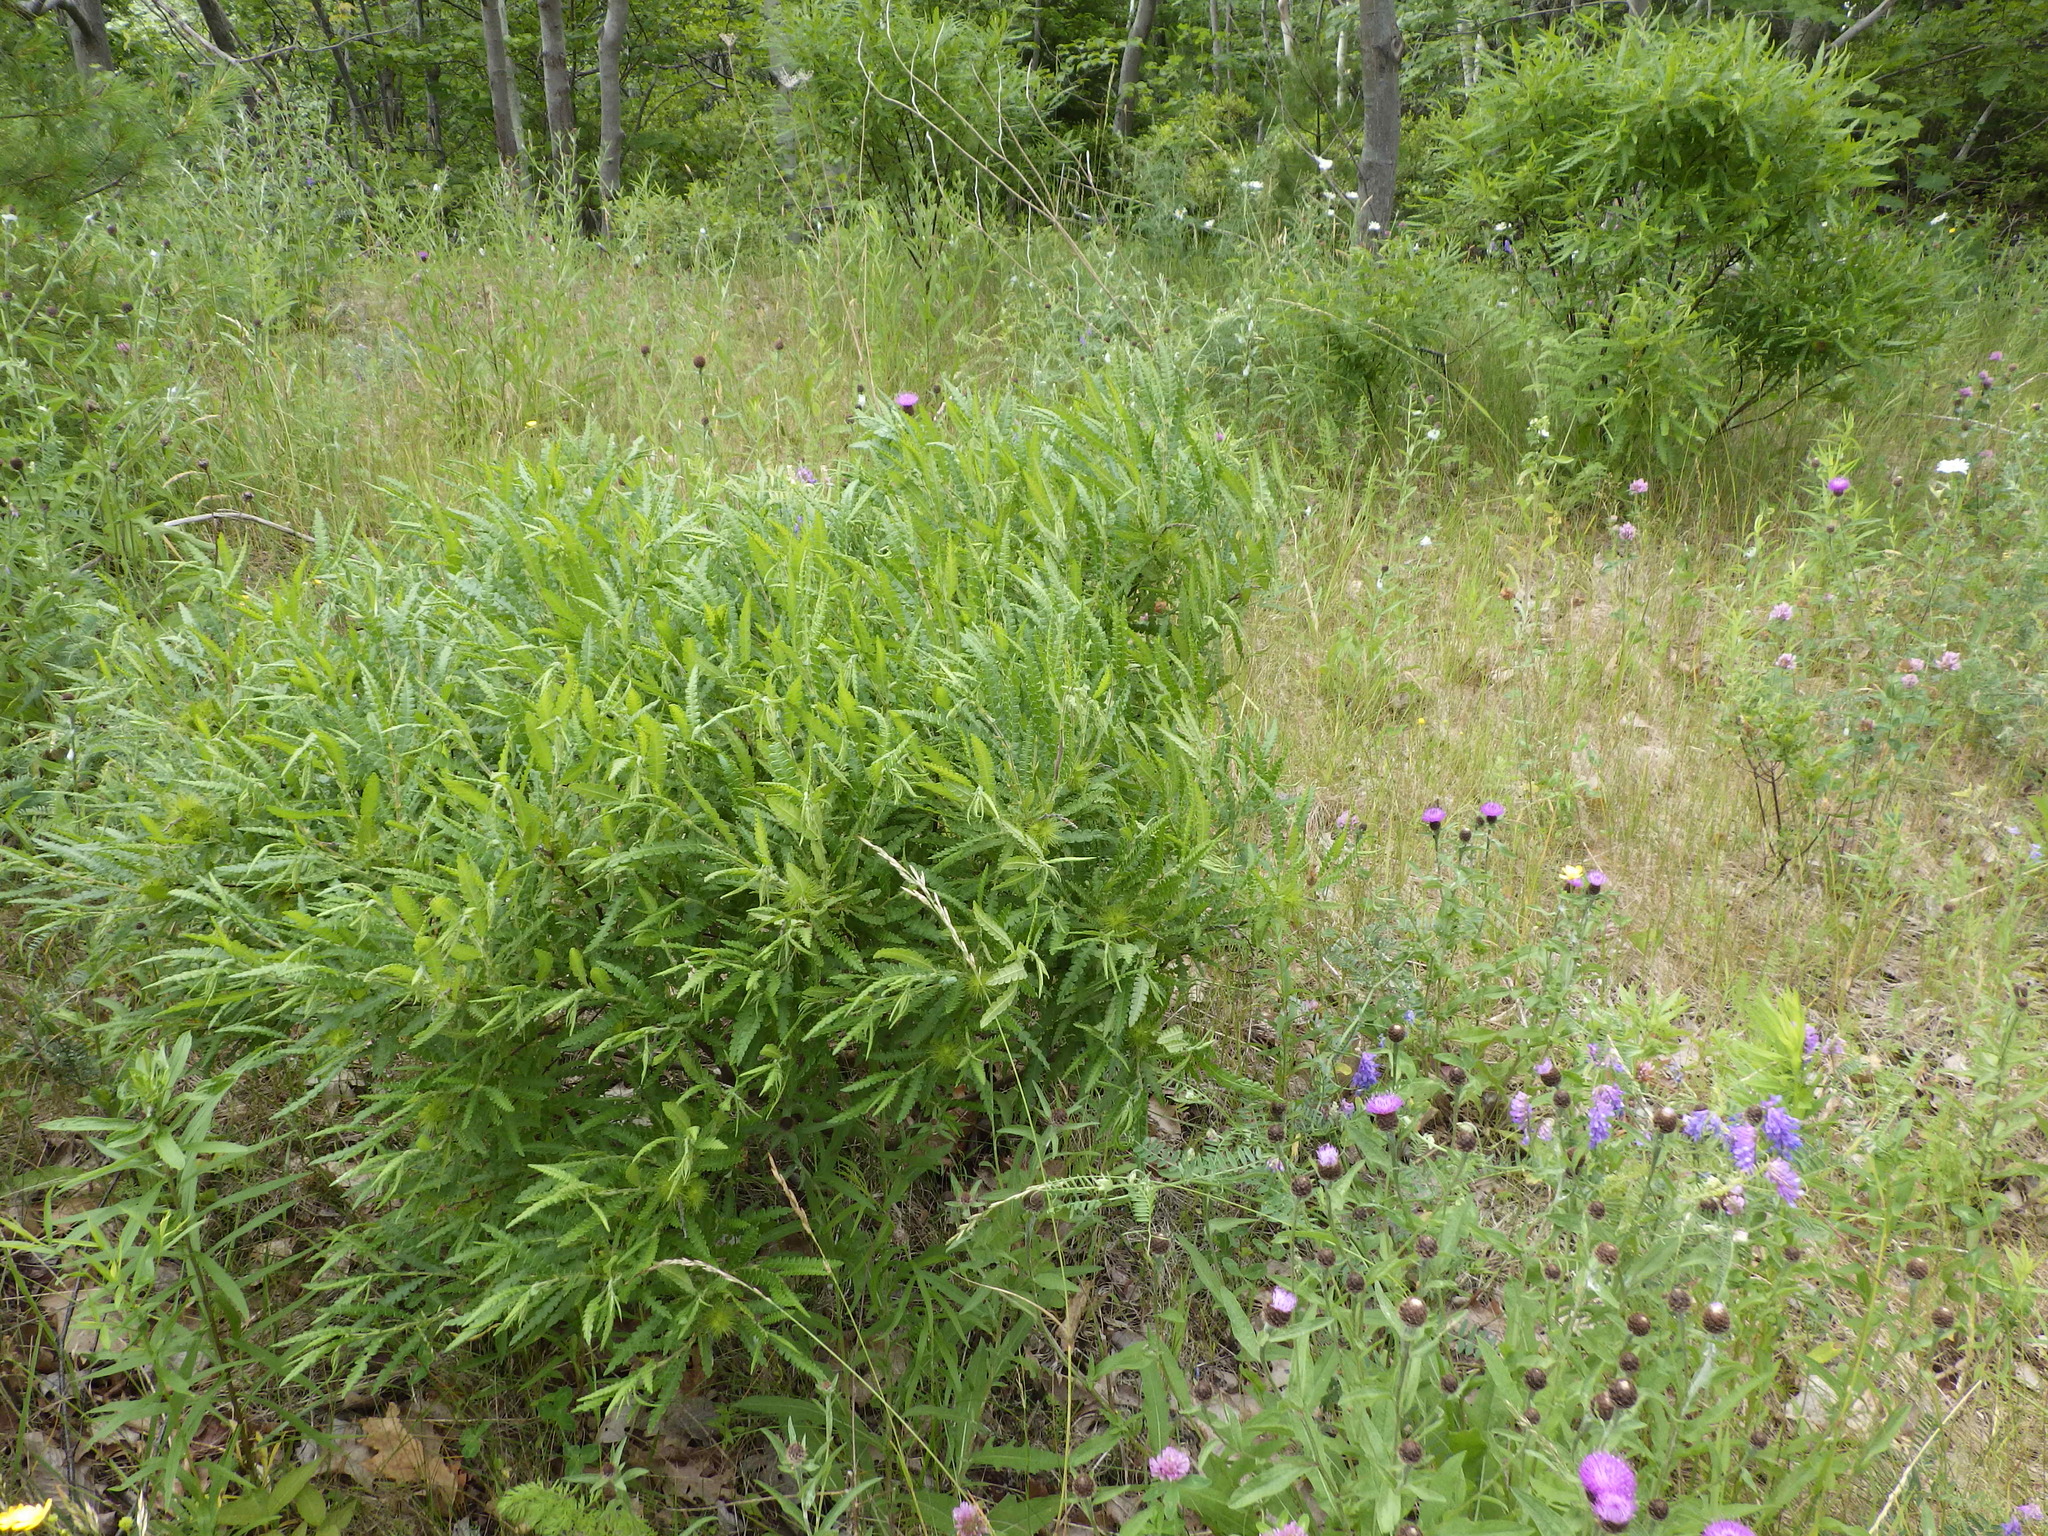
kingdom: Plantae
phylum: Tracheophyta
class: Magnoliopsida
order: Fagales
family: Myricaceae
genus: Comptonia
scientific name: Comptonia peregrina
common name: Sweet-fern
